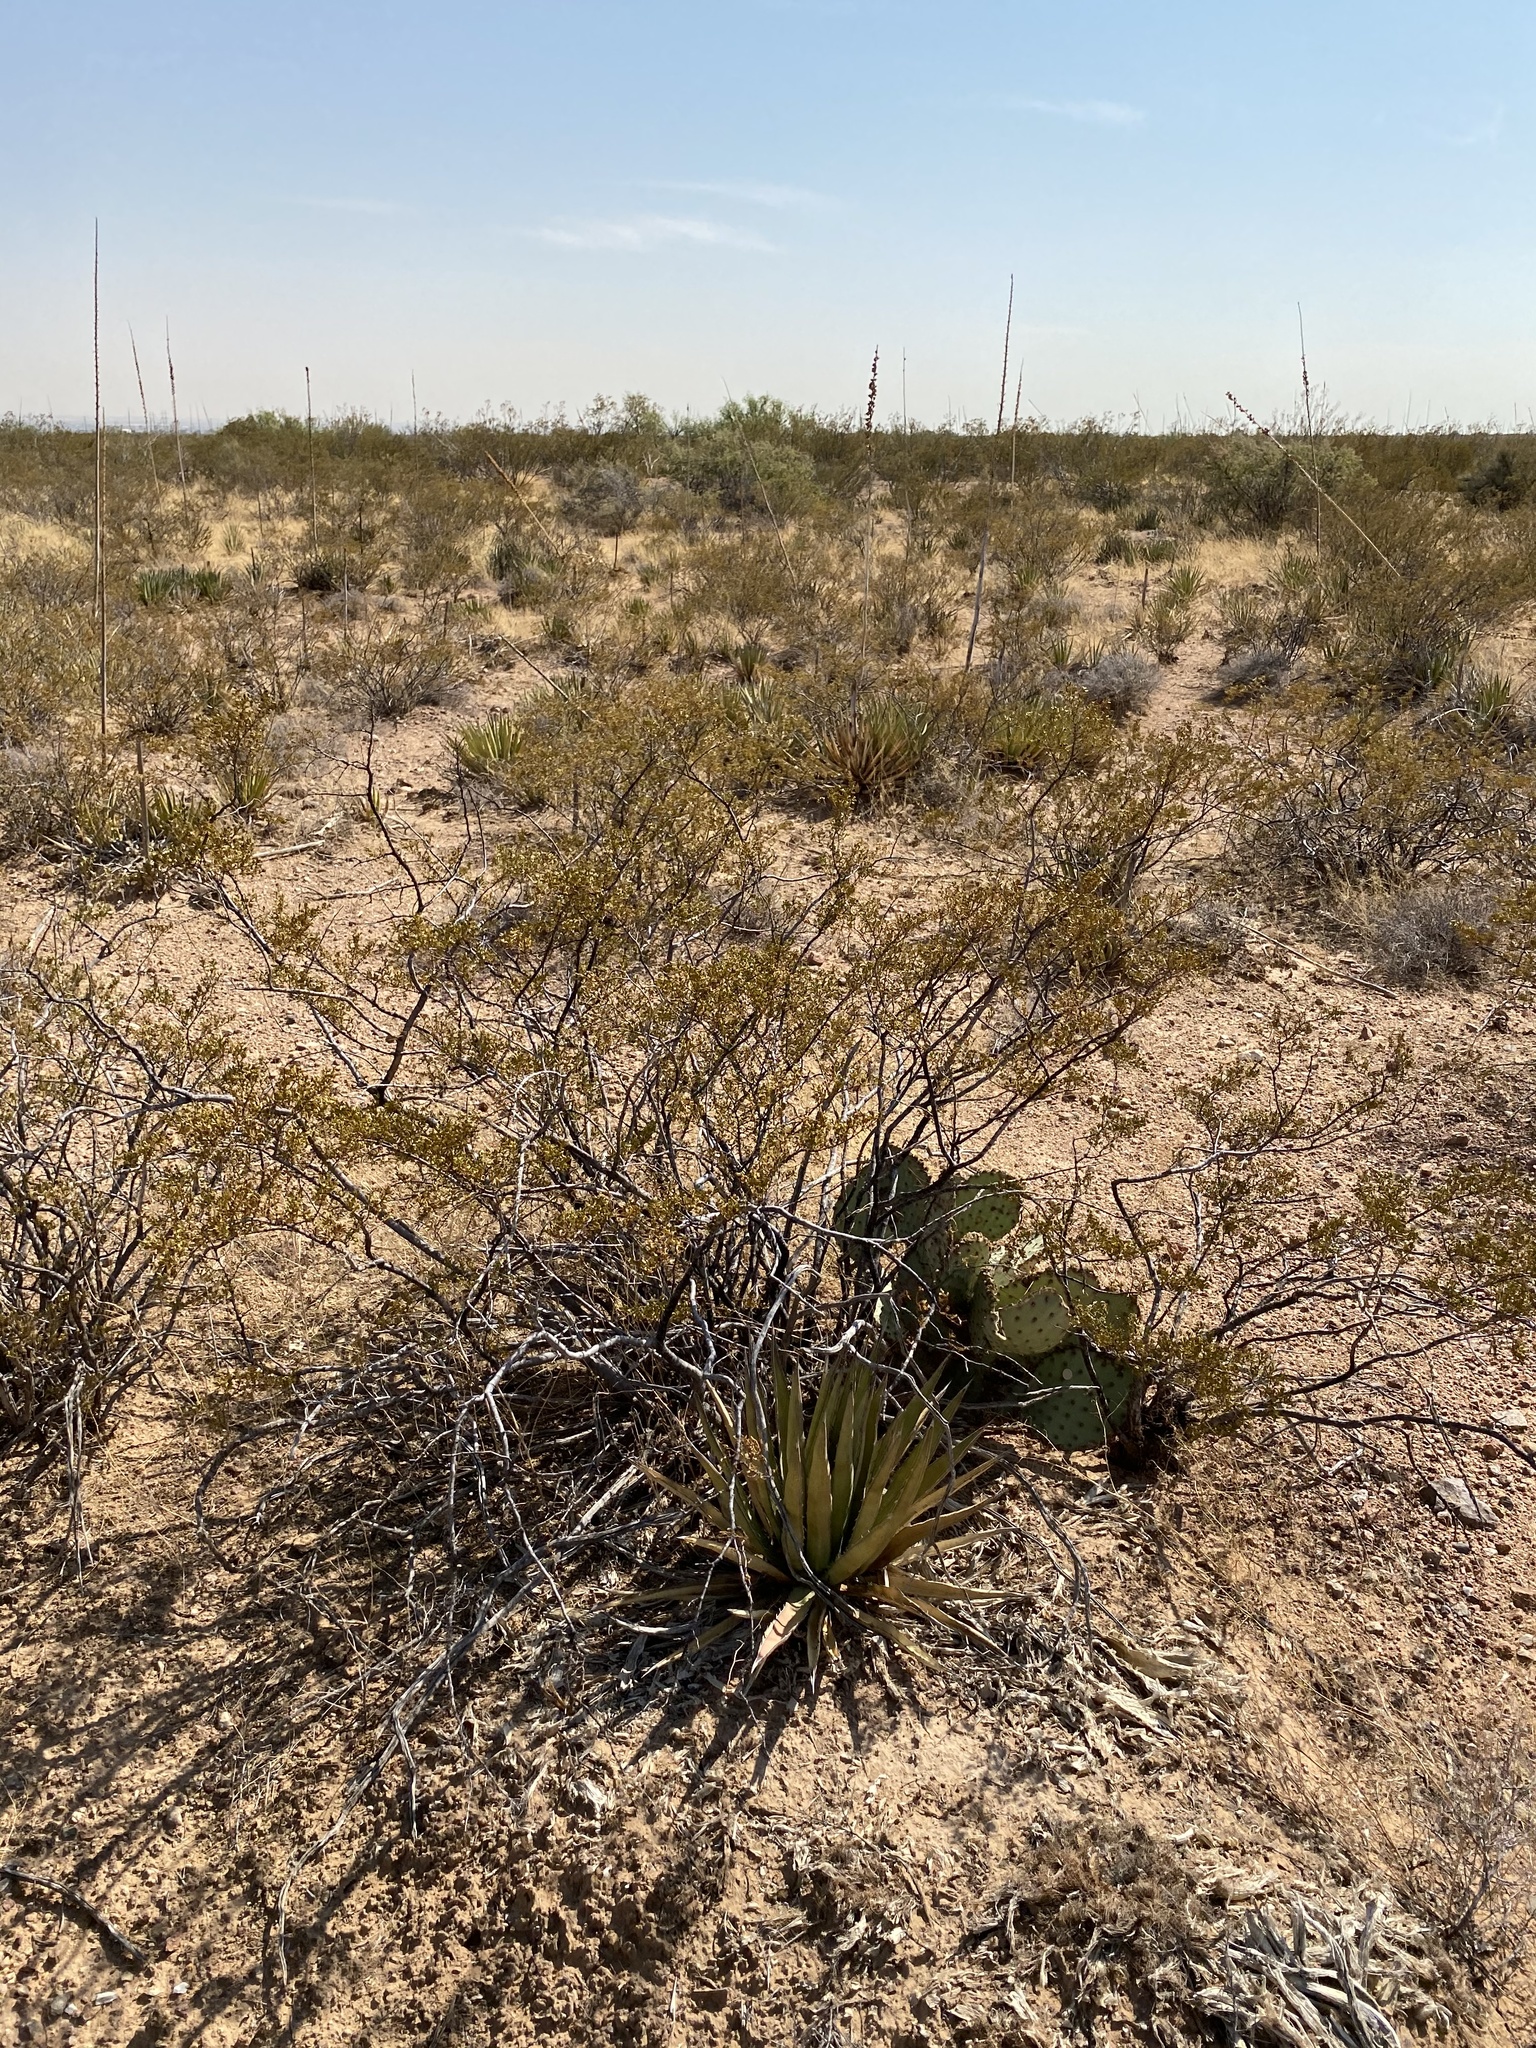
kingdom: Plantae
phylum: Tracheophyta
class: Magnoliopsida
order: Zygophyllales
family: Zygophyllaceae
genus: Larrea
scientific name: Larrea tridentata
